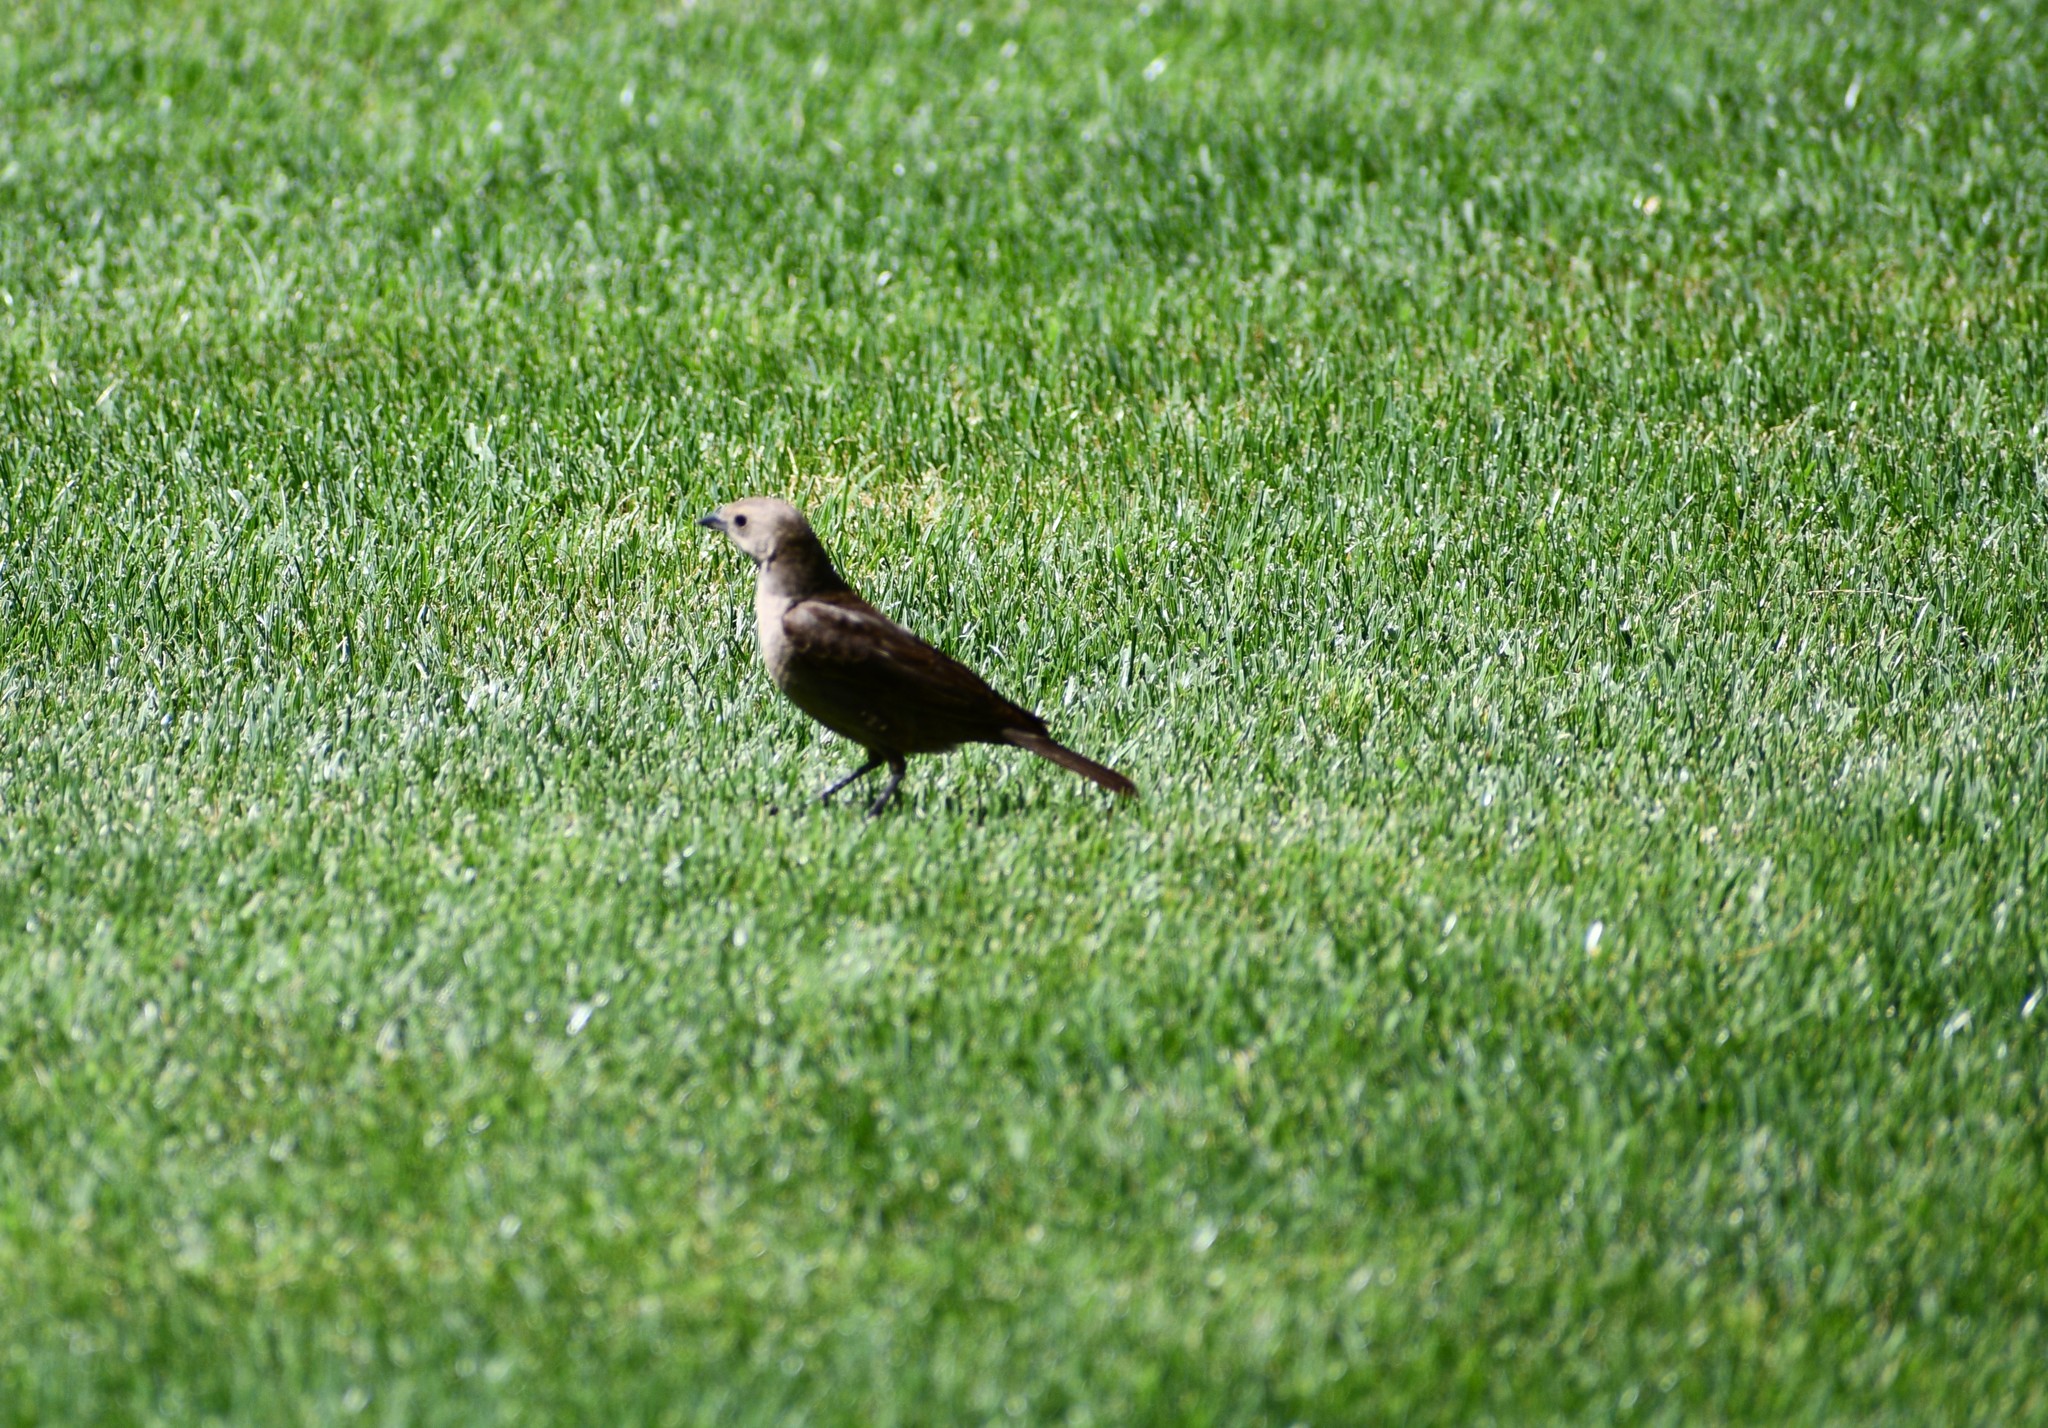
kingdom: Animalia
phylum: Chordata
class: Aves
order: Passeriformes
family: Icteridae
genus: Molothrus
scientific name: Molothrus ater
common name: Brown-headed cowbird
